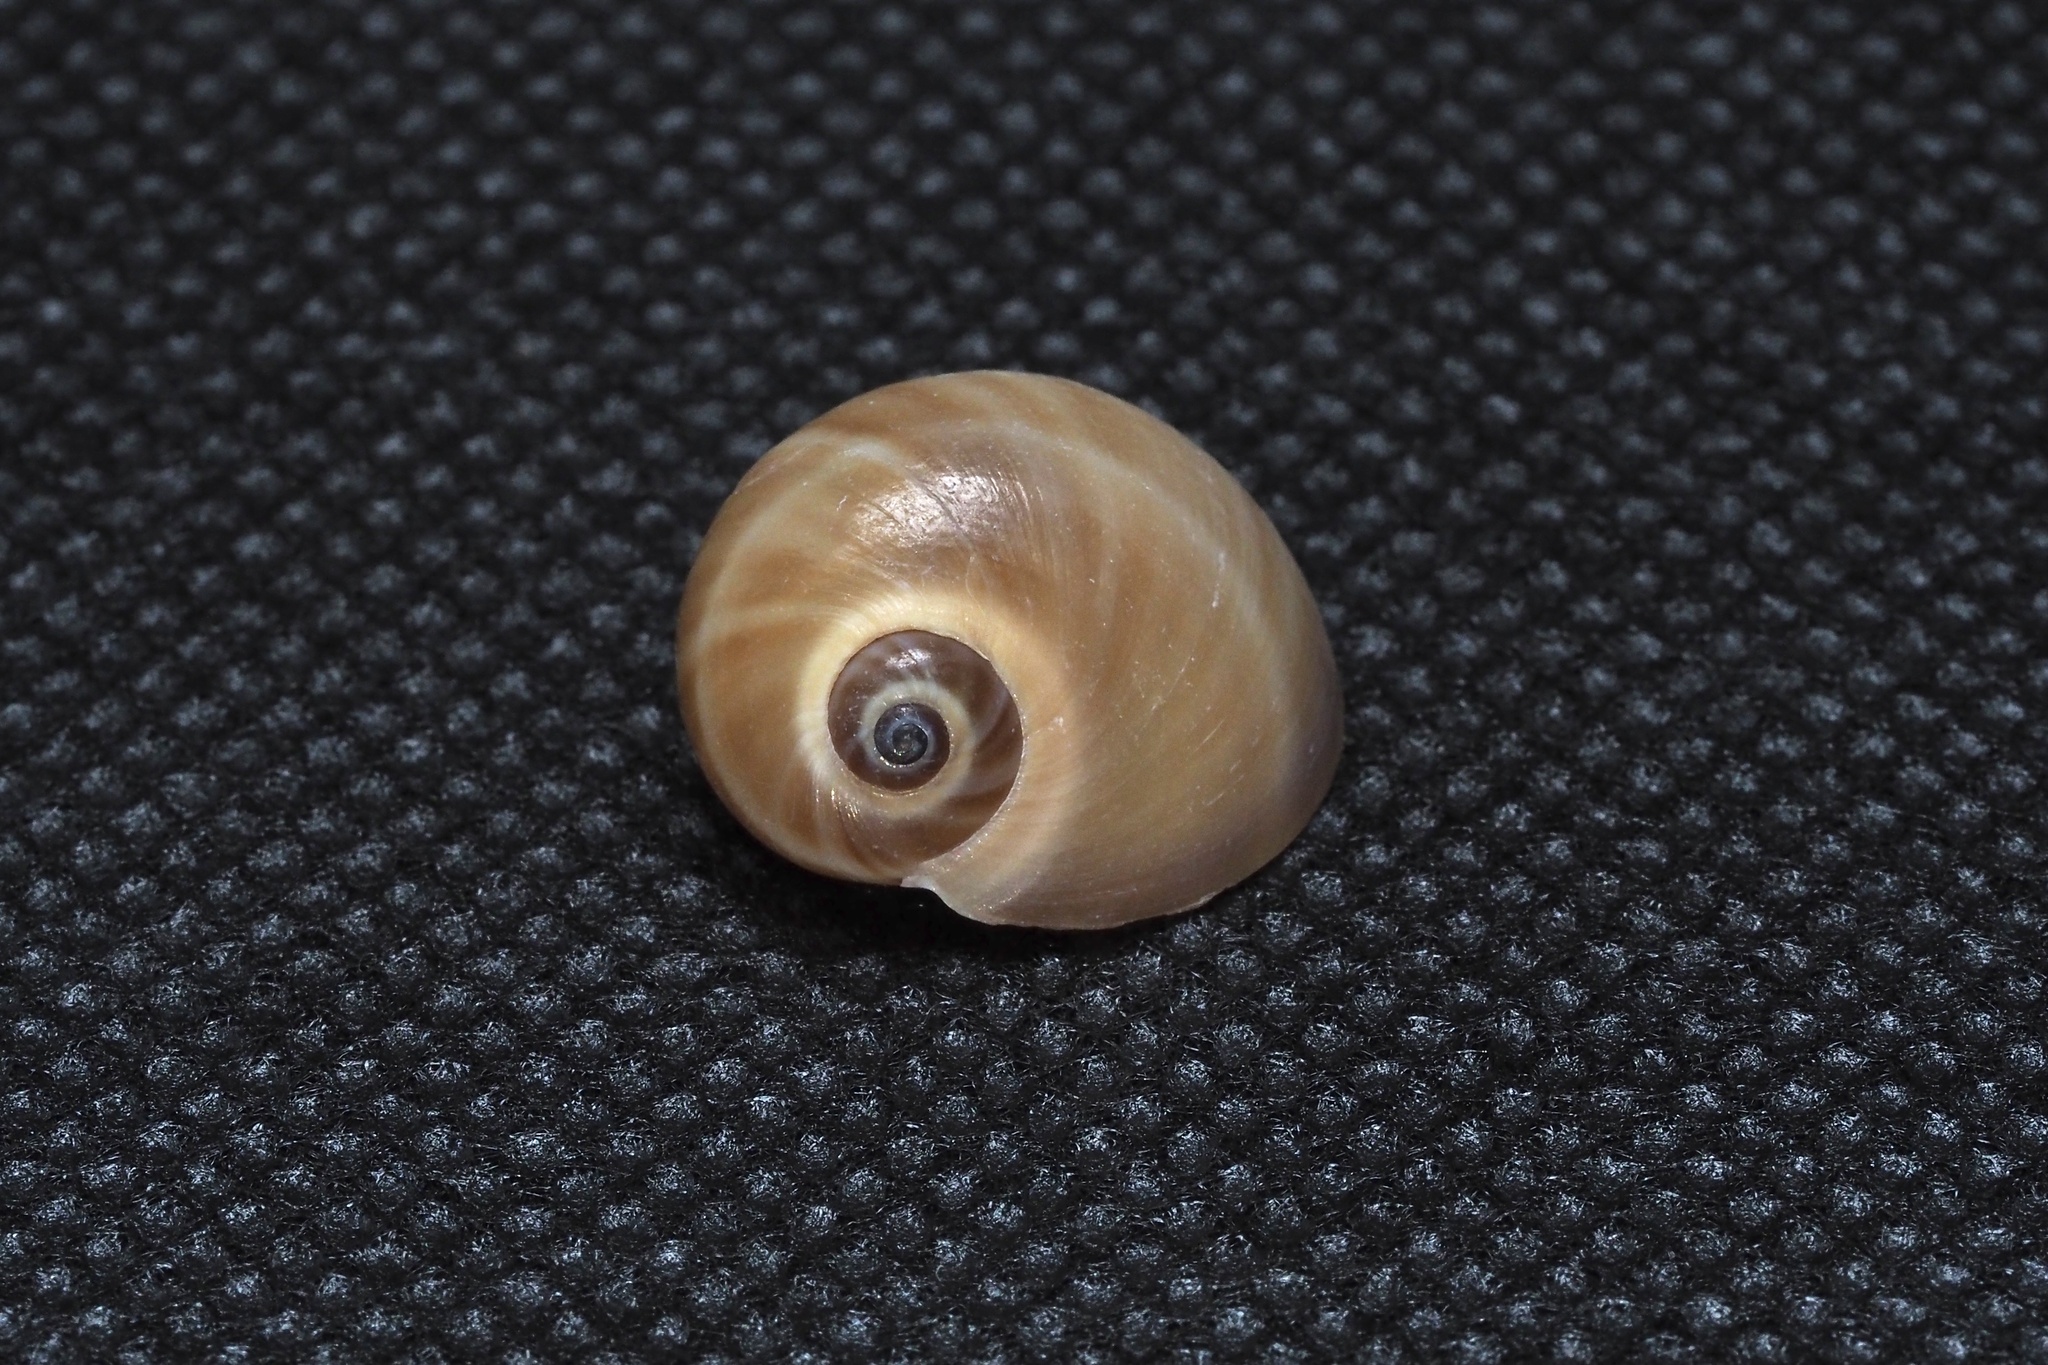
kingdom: Animalia
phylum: Mollusca
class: Gastropoda
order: Littorinimorpha
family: Naticidae
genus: Glossaulax
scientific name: Glossaulax vesicalis
